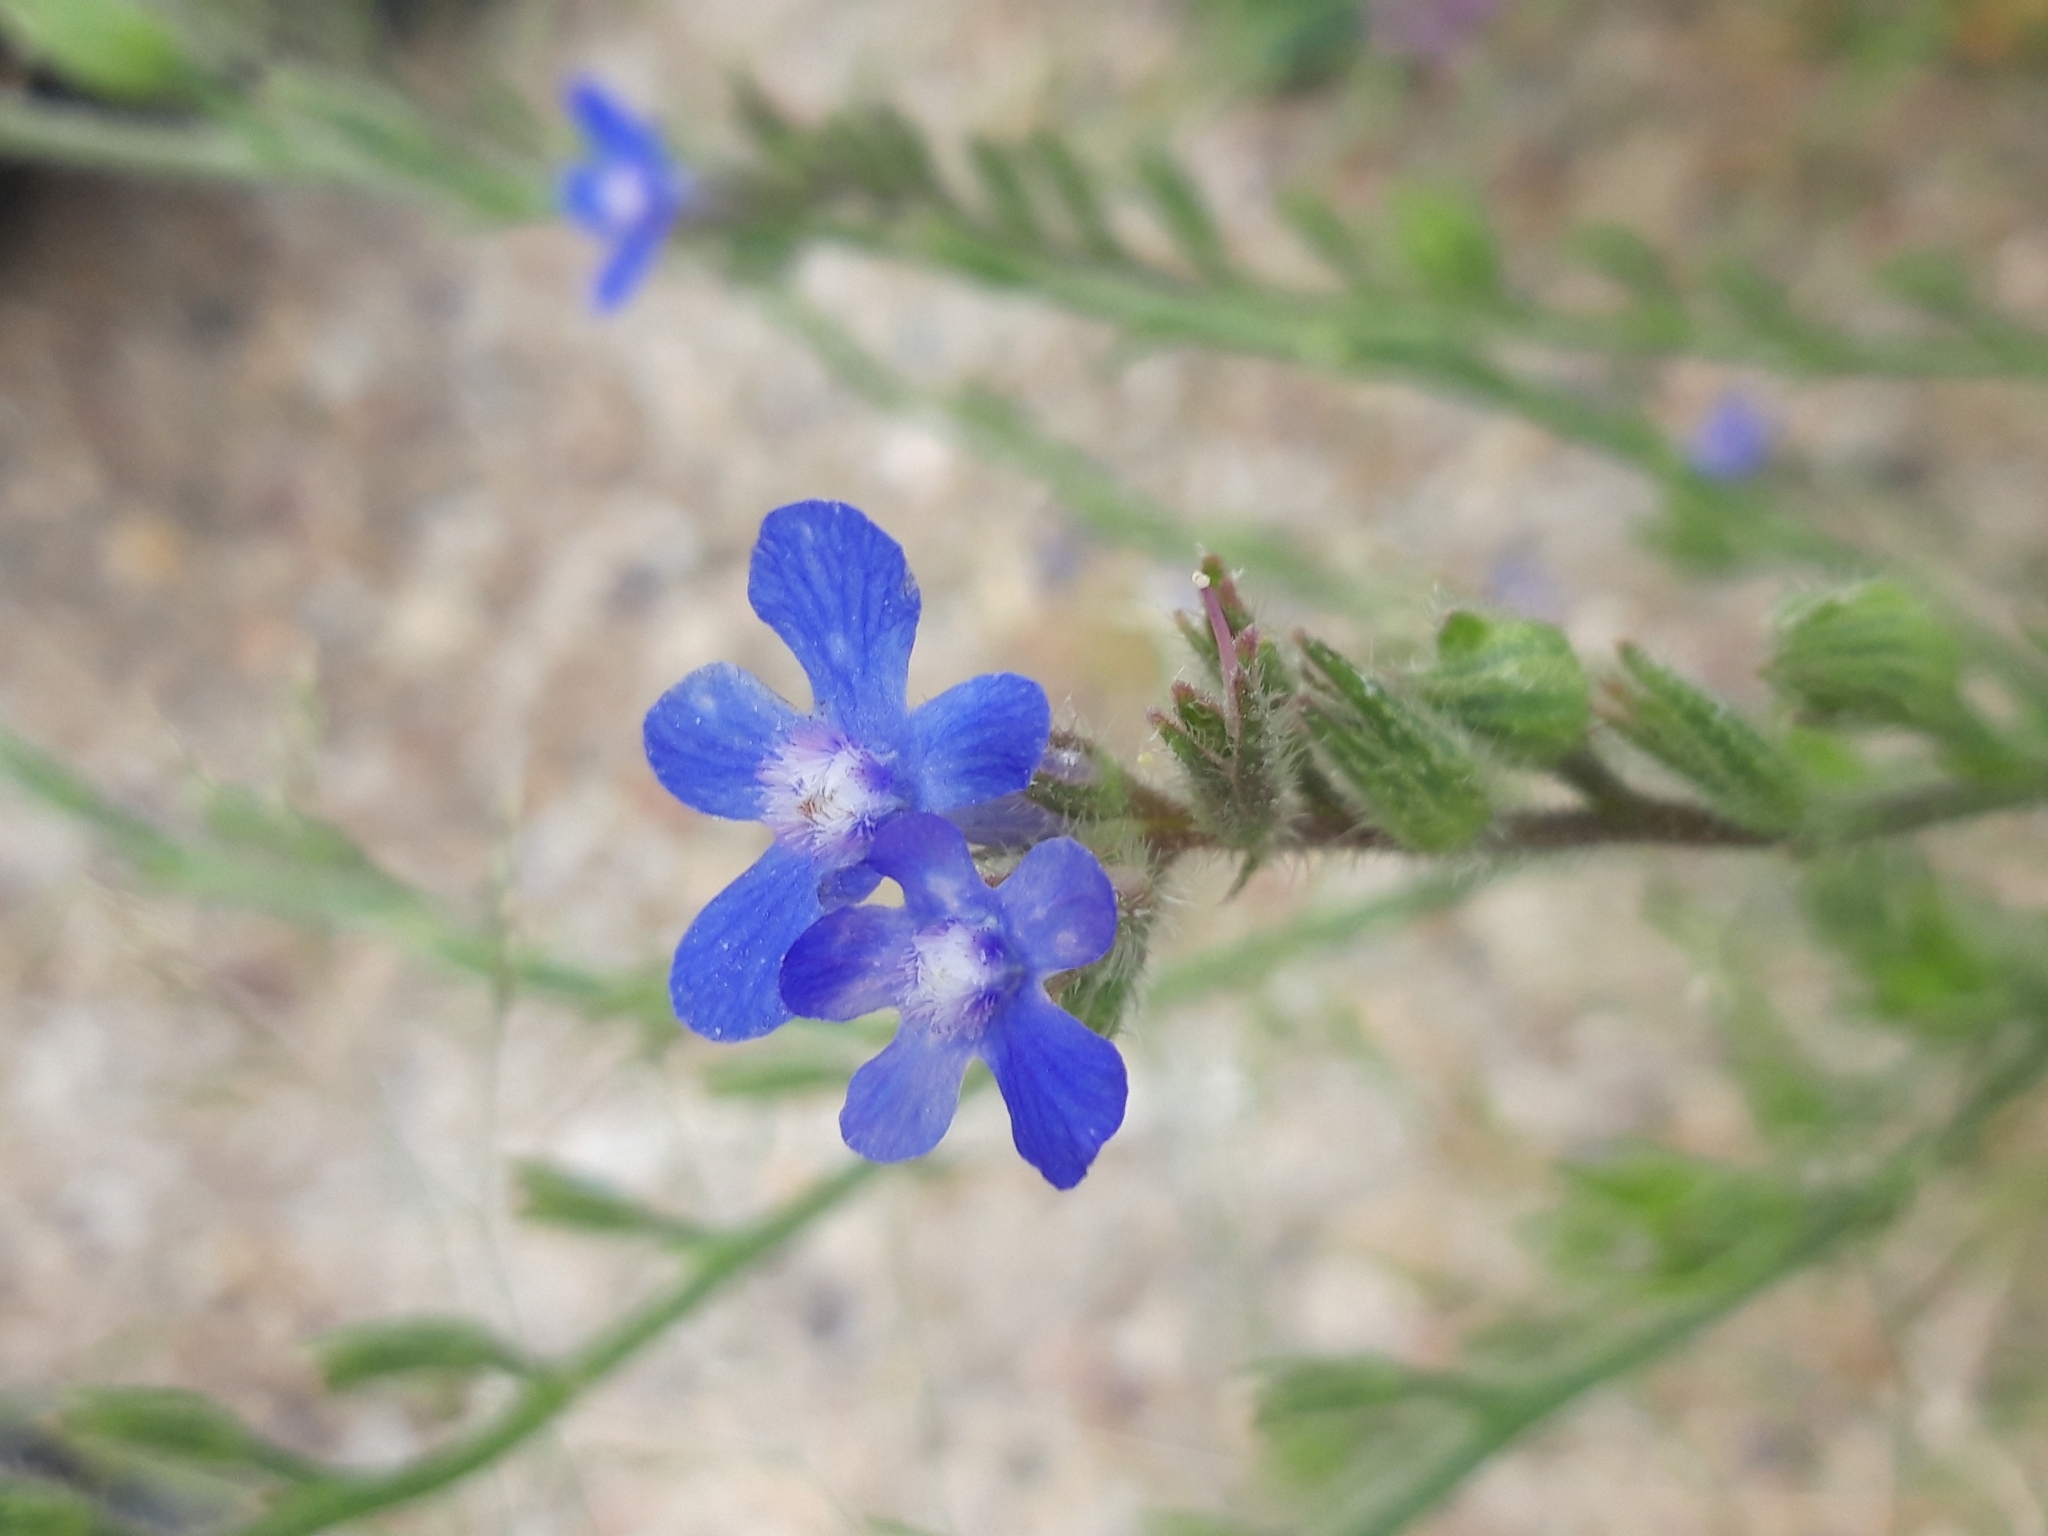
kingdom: Plantae
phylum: Tracheophyta
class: Magnoliopsida
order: Boraginales
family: Boraginaceae
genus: Anchusa
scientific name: Anchusa azurea
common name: Garden anchusa
